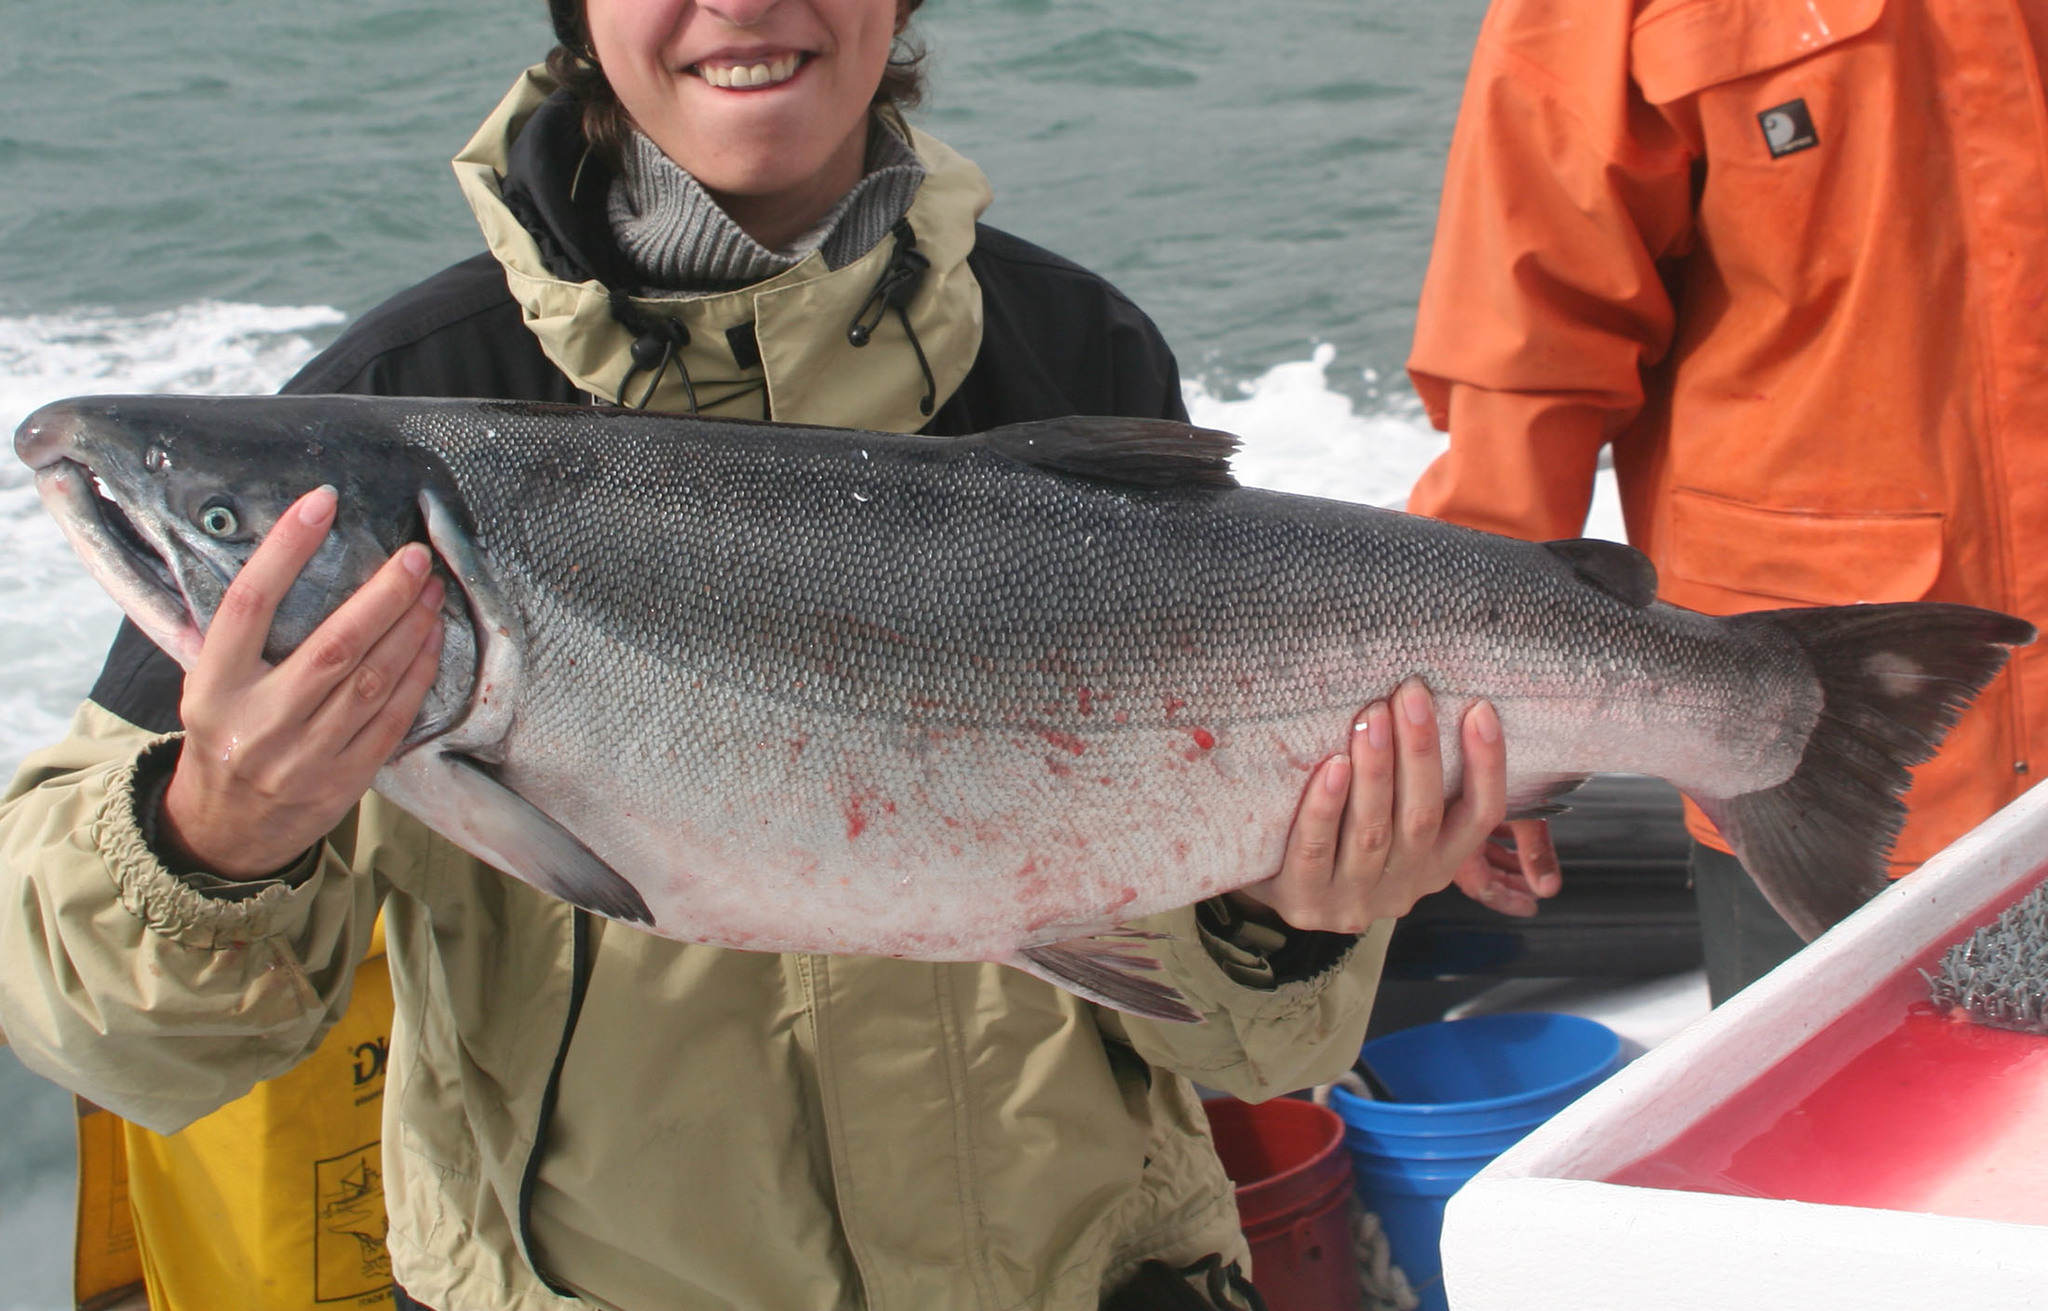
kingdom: Animalia
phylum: Chordata
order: Salmoniformes
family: Salmonidae
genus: Oncorhynchus
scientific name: Oncorhynchus kisutch
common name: Coho salmon
